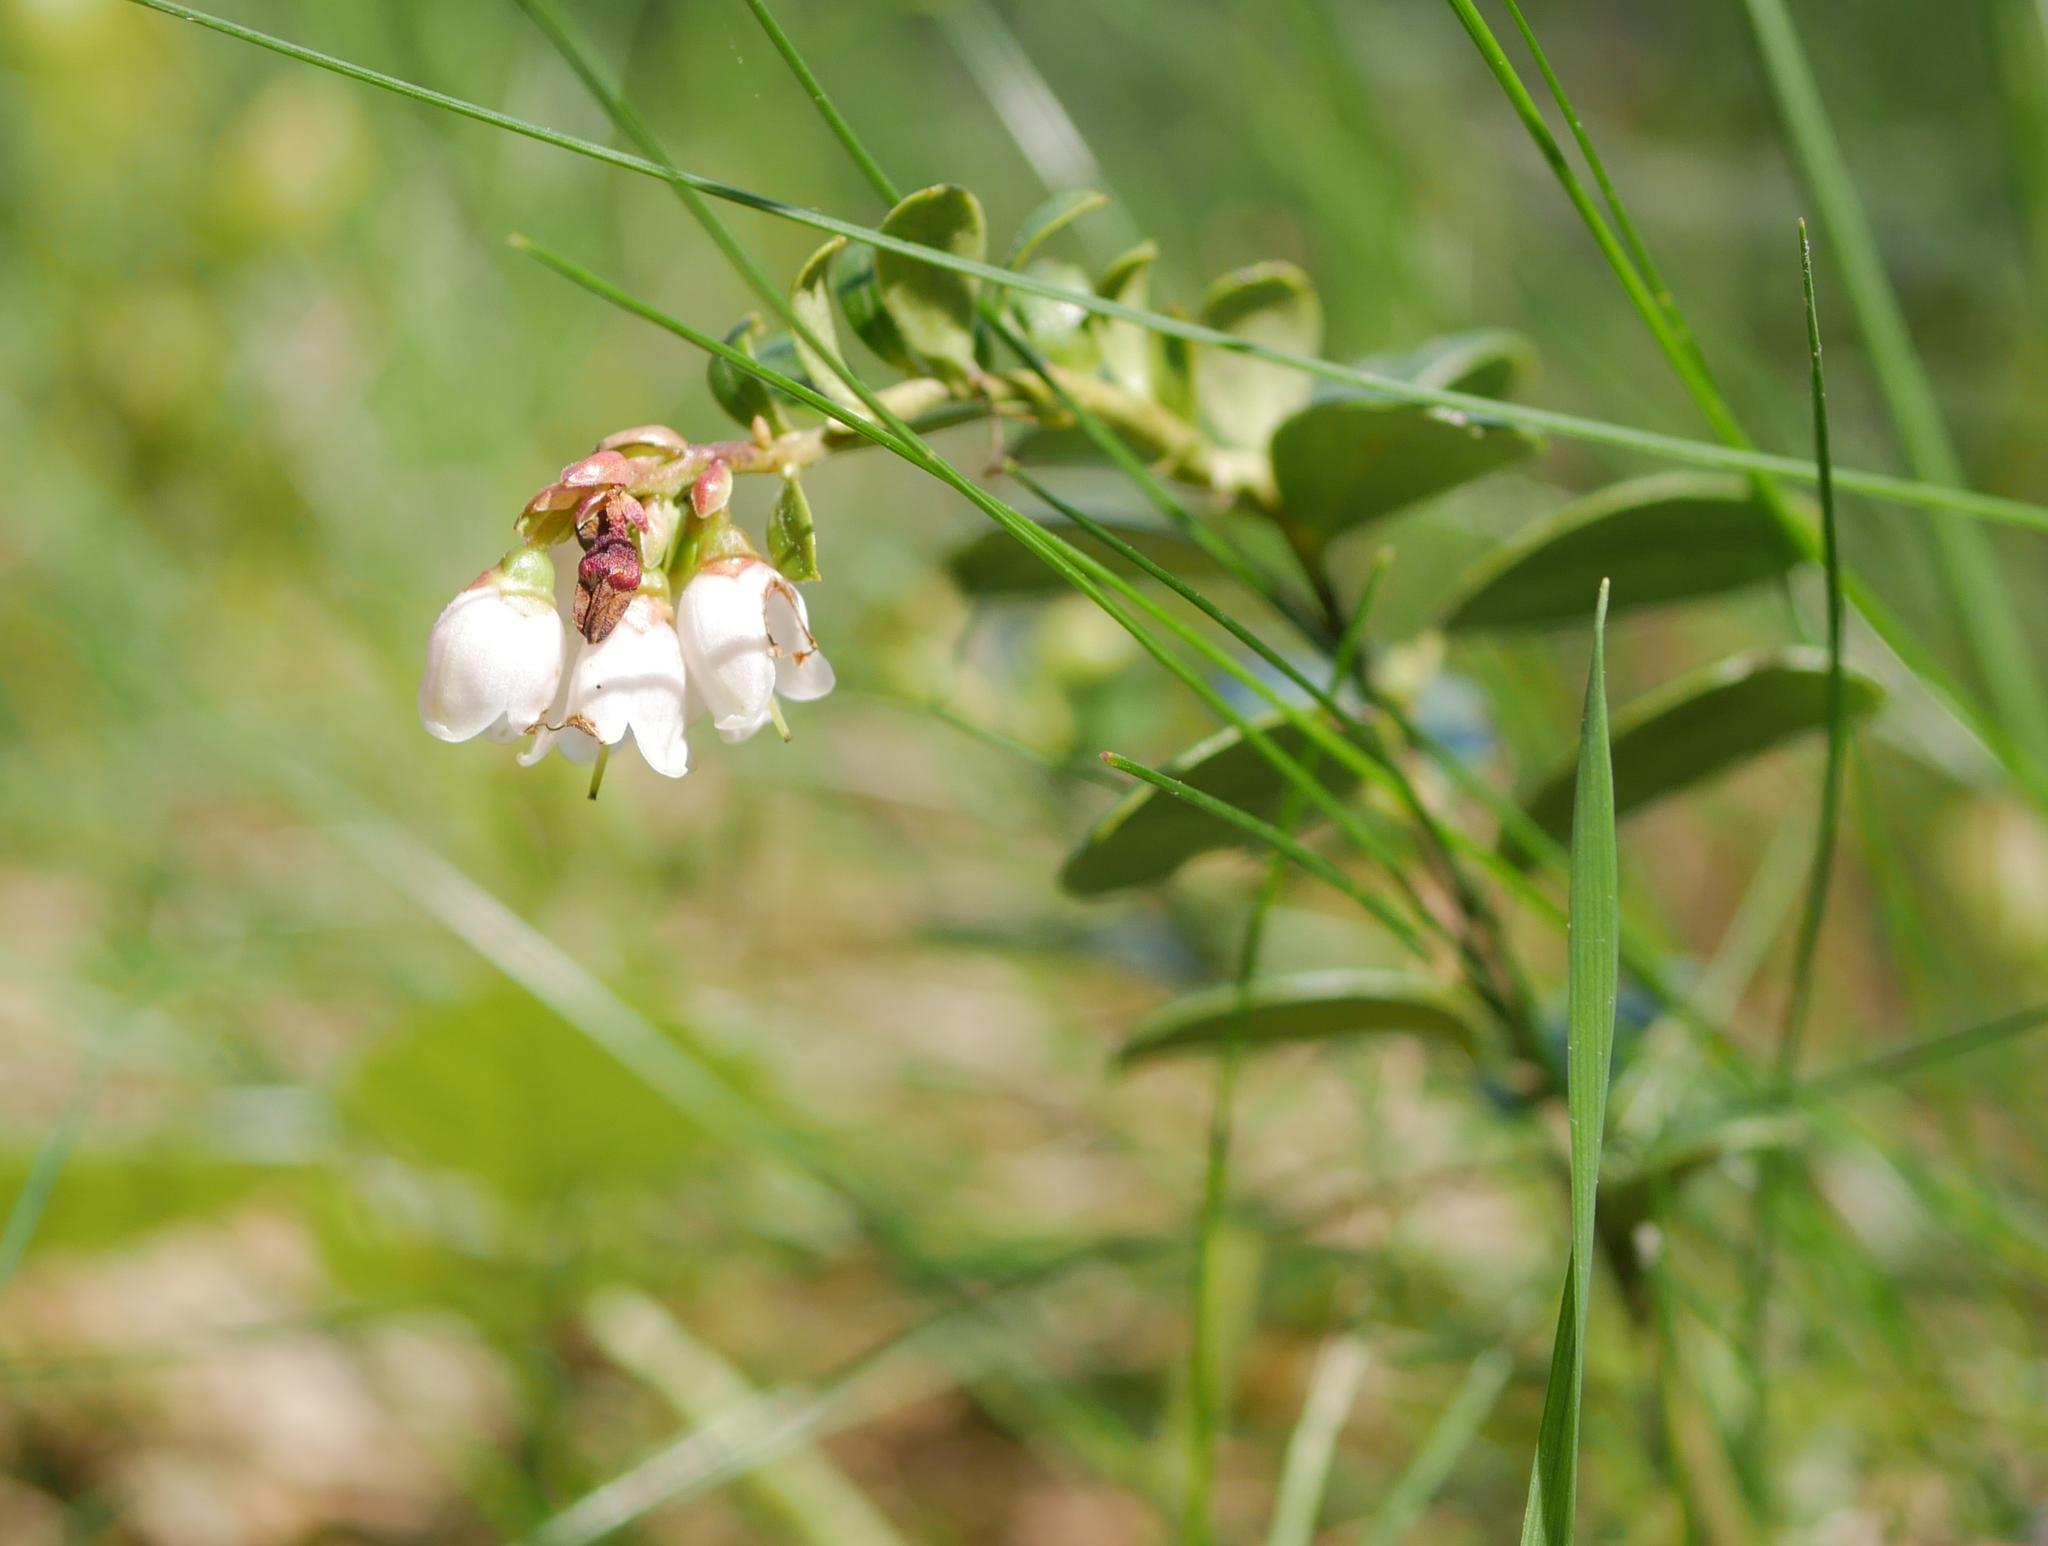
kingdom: Plantae
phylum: Tracheophyta
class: Magnoliopsida
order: Ericales
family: Ericaceae
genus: Vaccinium
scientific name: Vaccinium vitis-idaea
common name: Cowberry
